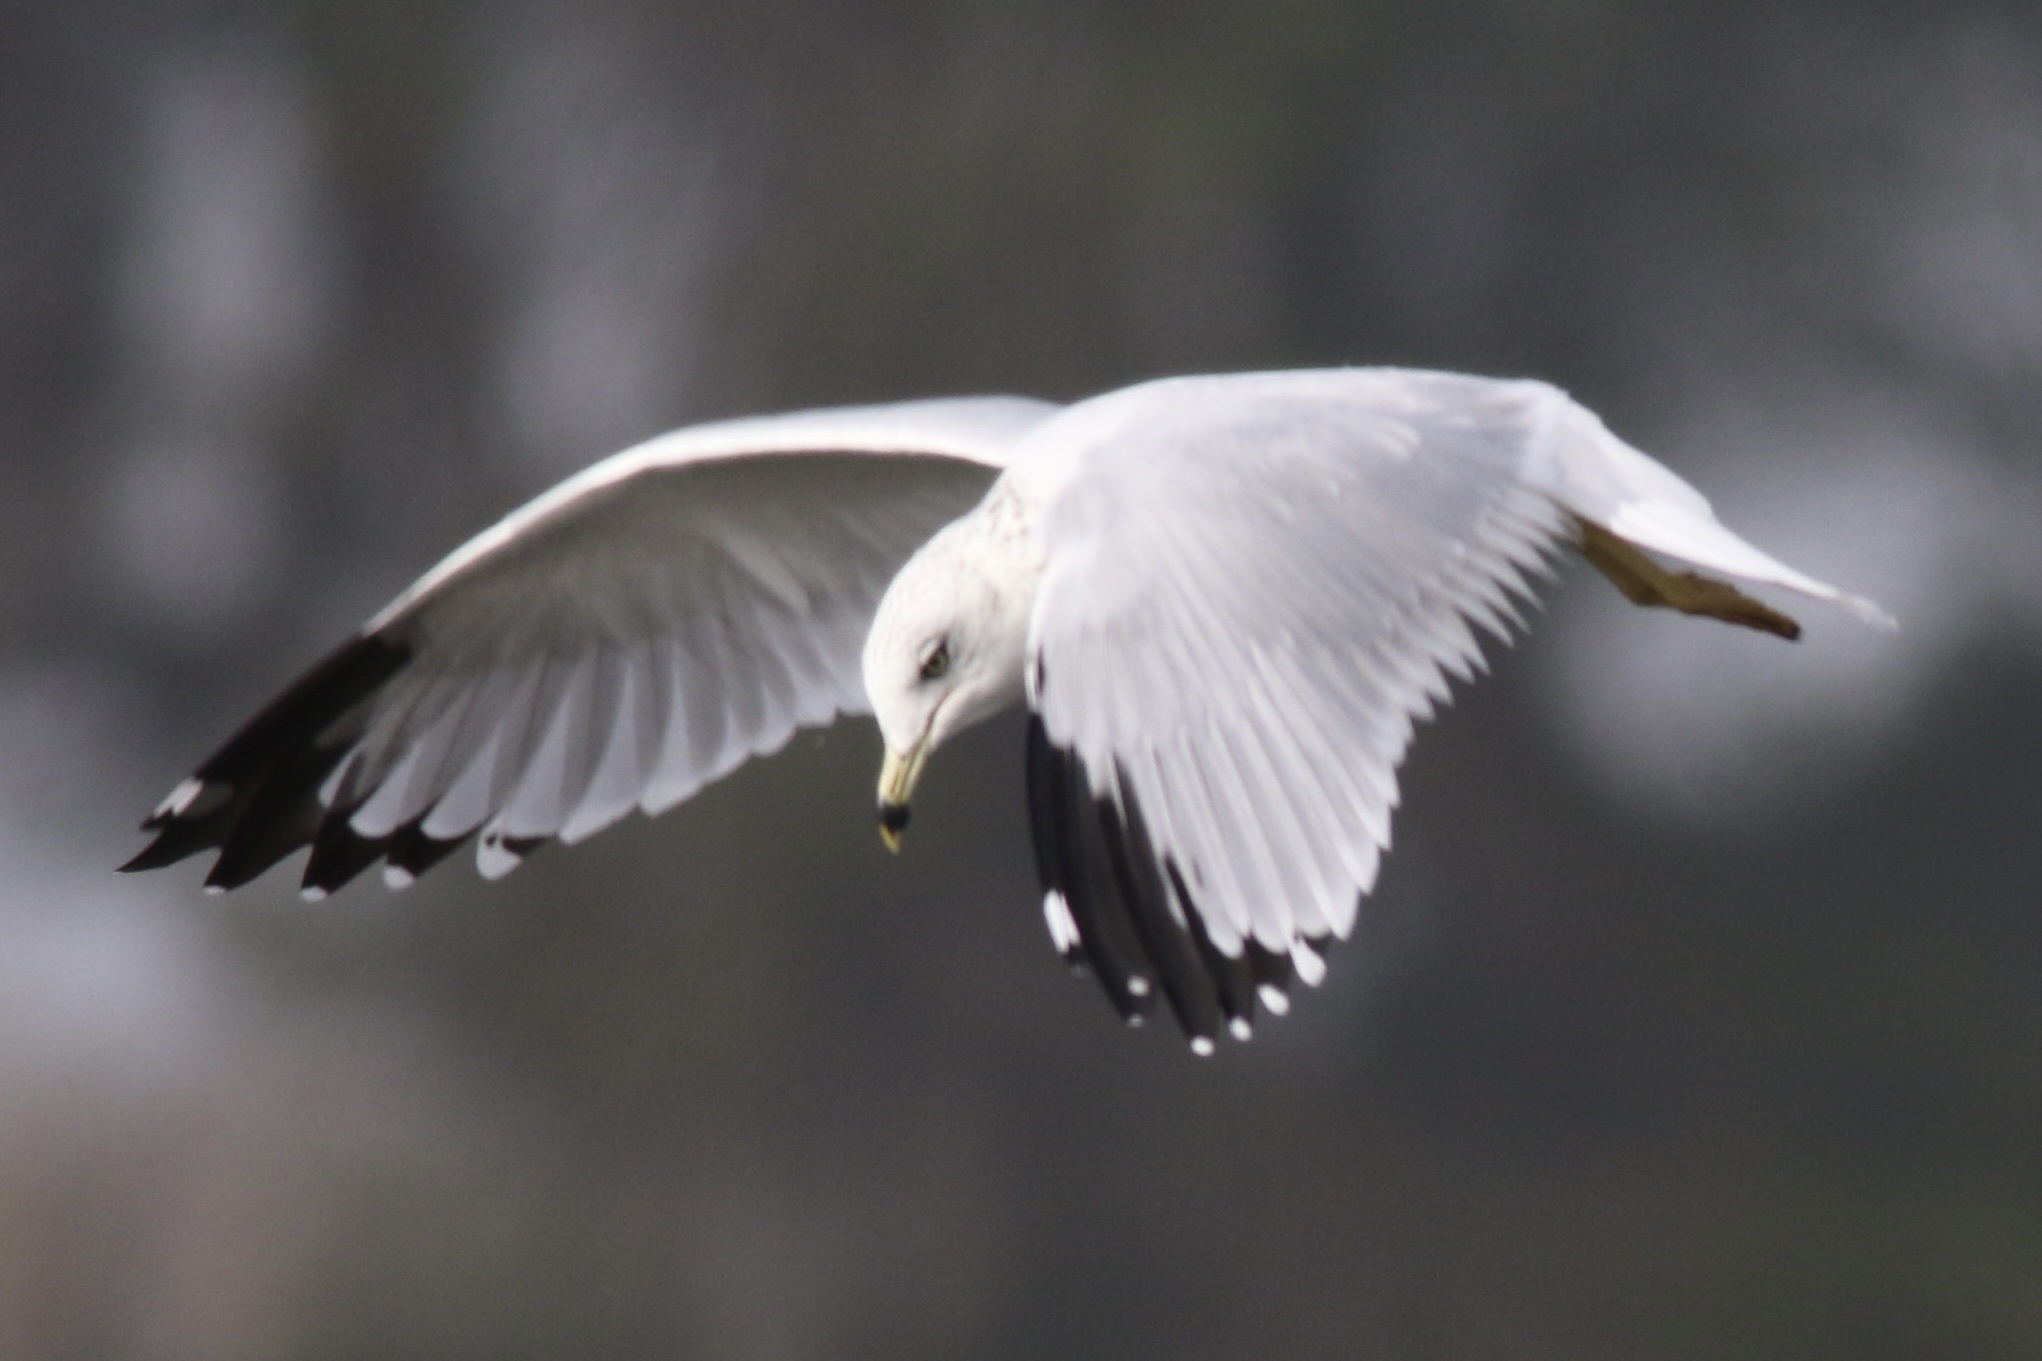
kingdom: Animalia
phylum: Chordata
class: Aves
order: Charadriiformes
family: Laridae
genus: Larus
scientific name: Larus delawarensis
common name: Ring-billed gull
